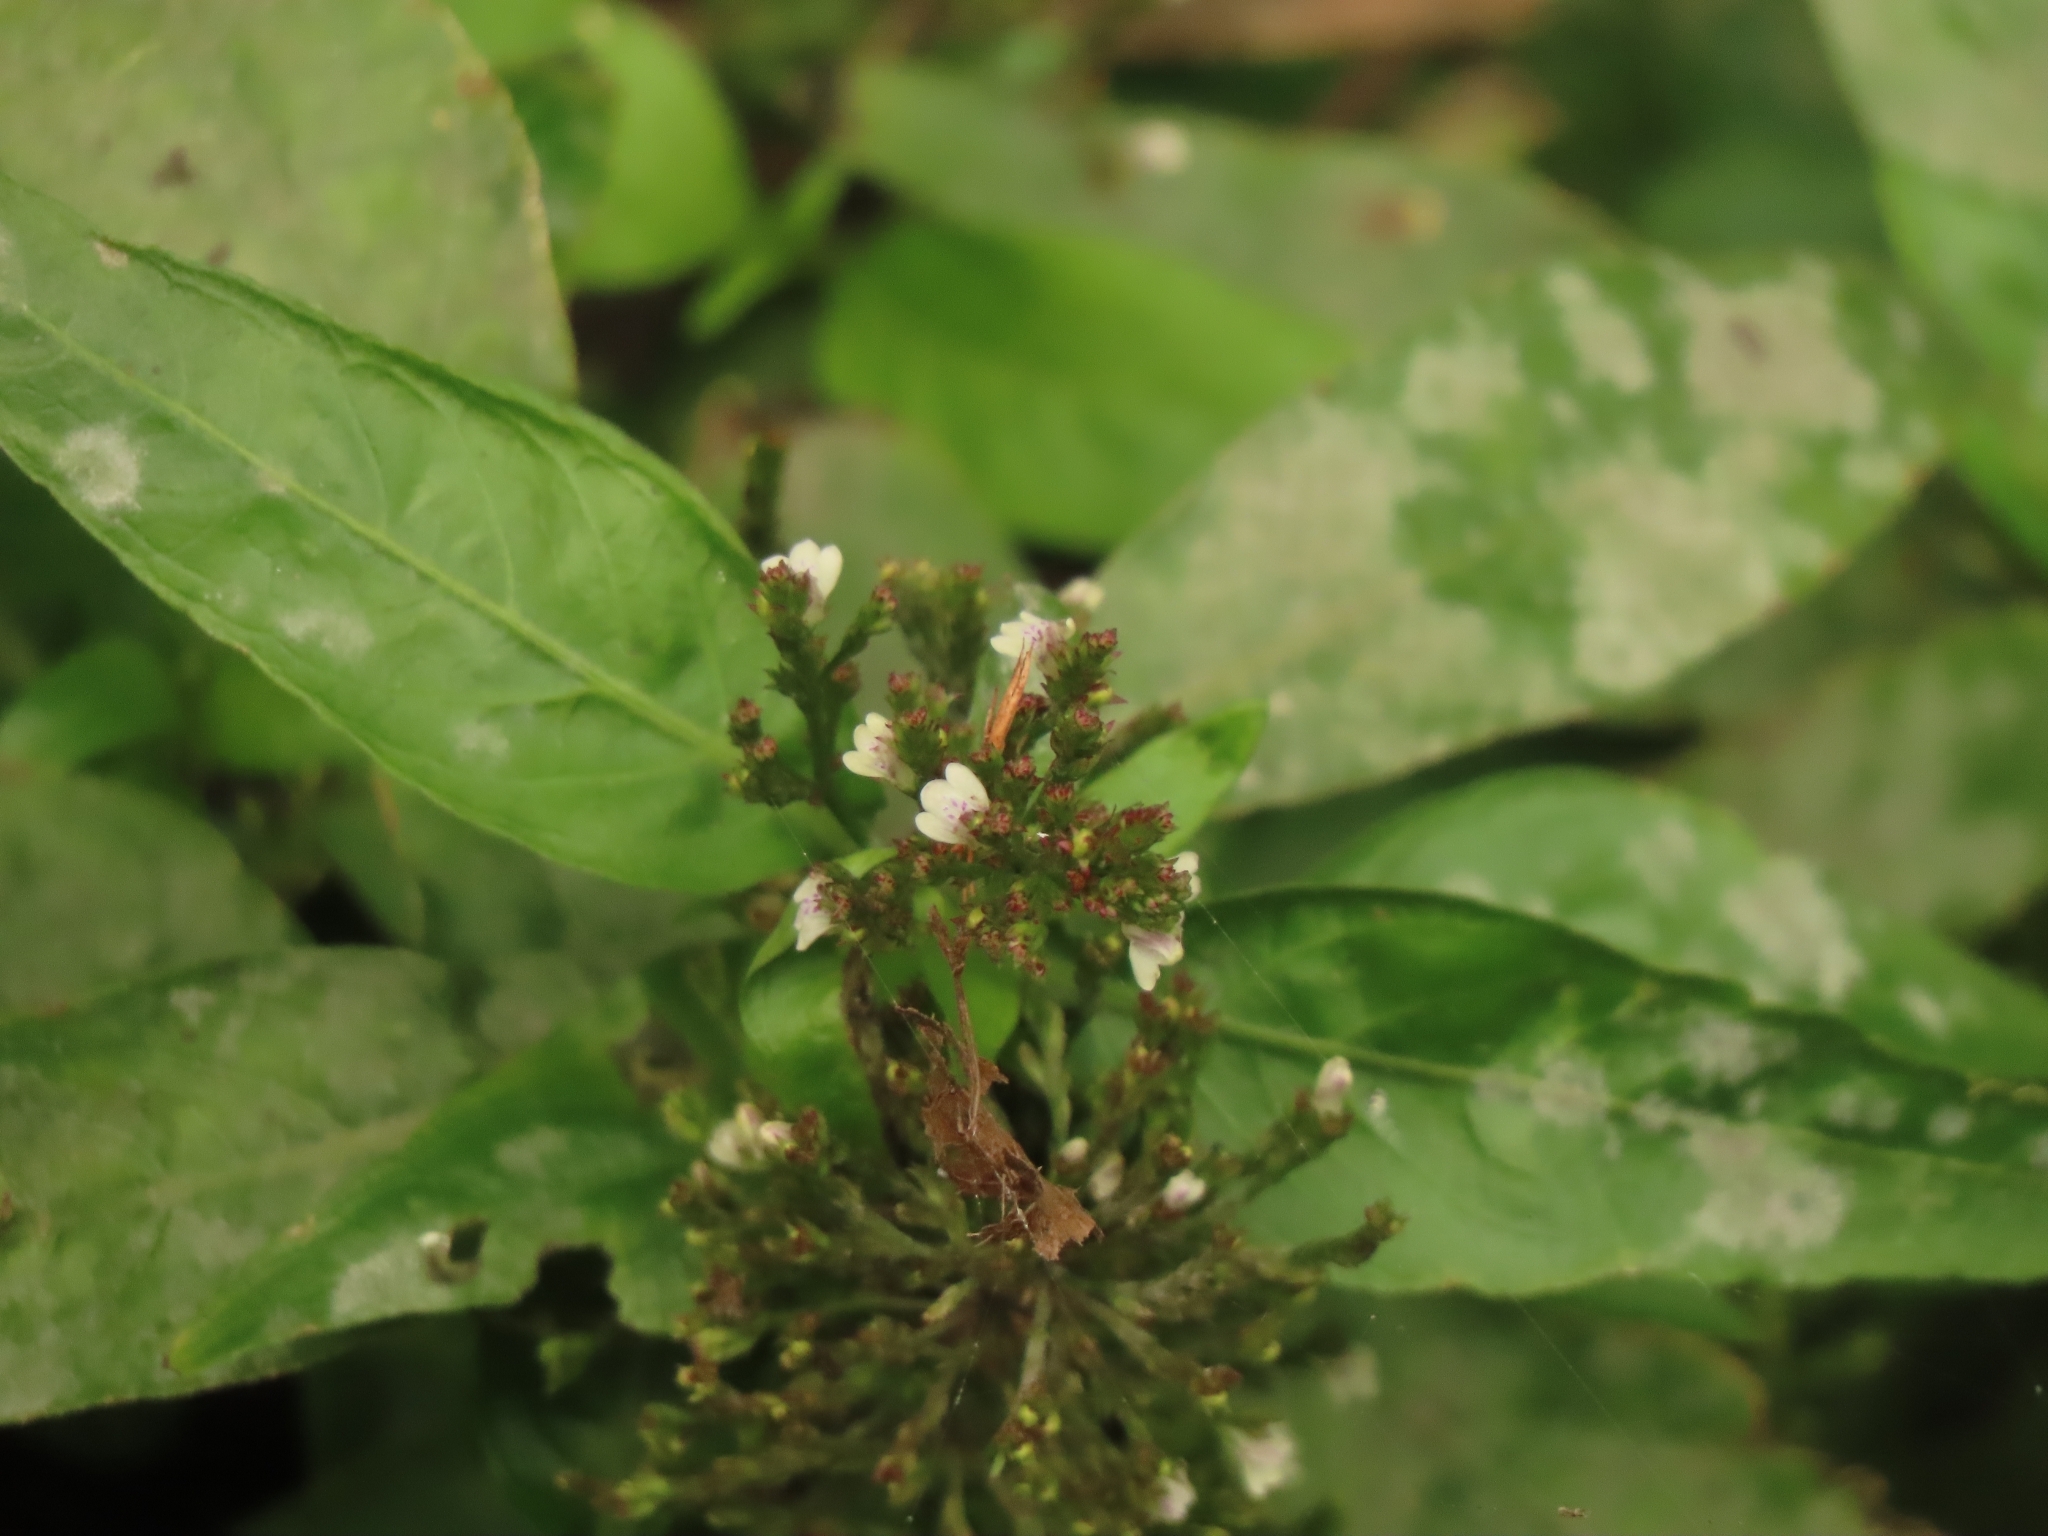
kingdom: Plantae
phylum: Tracheophyta
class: Magnoliopsida
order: Lamiales
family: Acanthaceae
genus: Justicia
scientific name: Justicia comata
